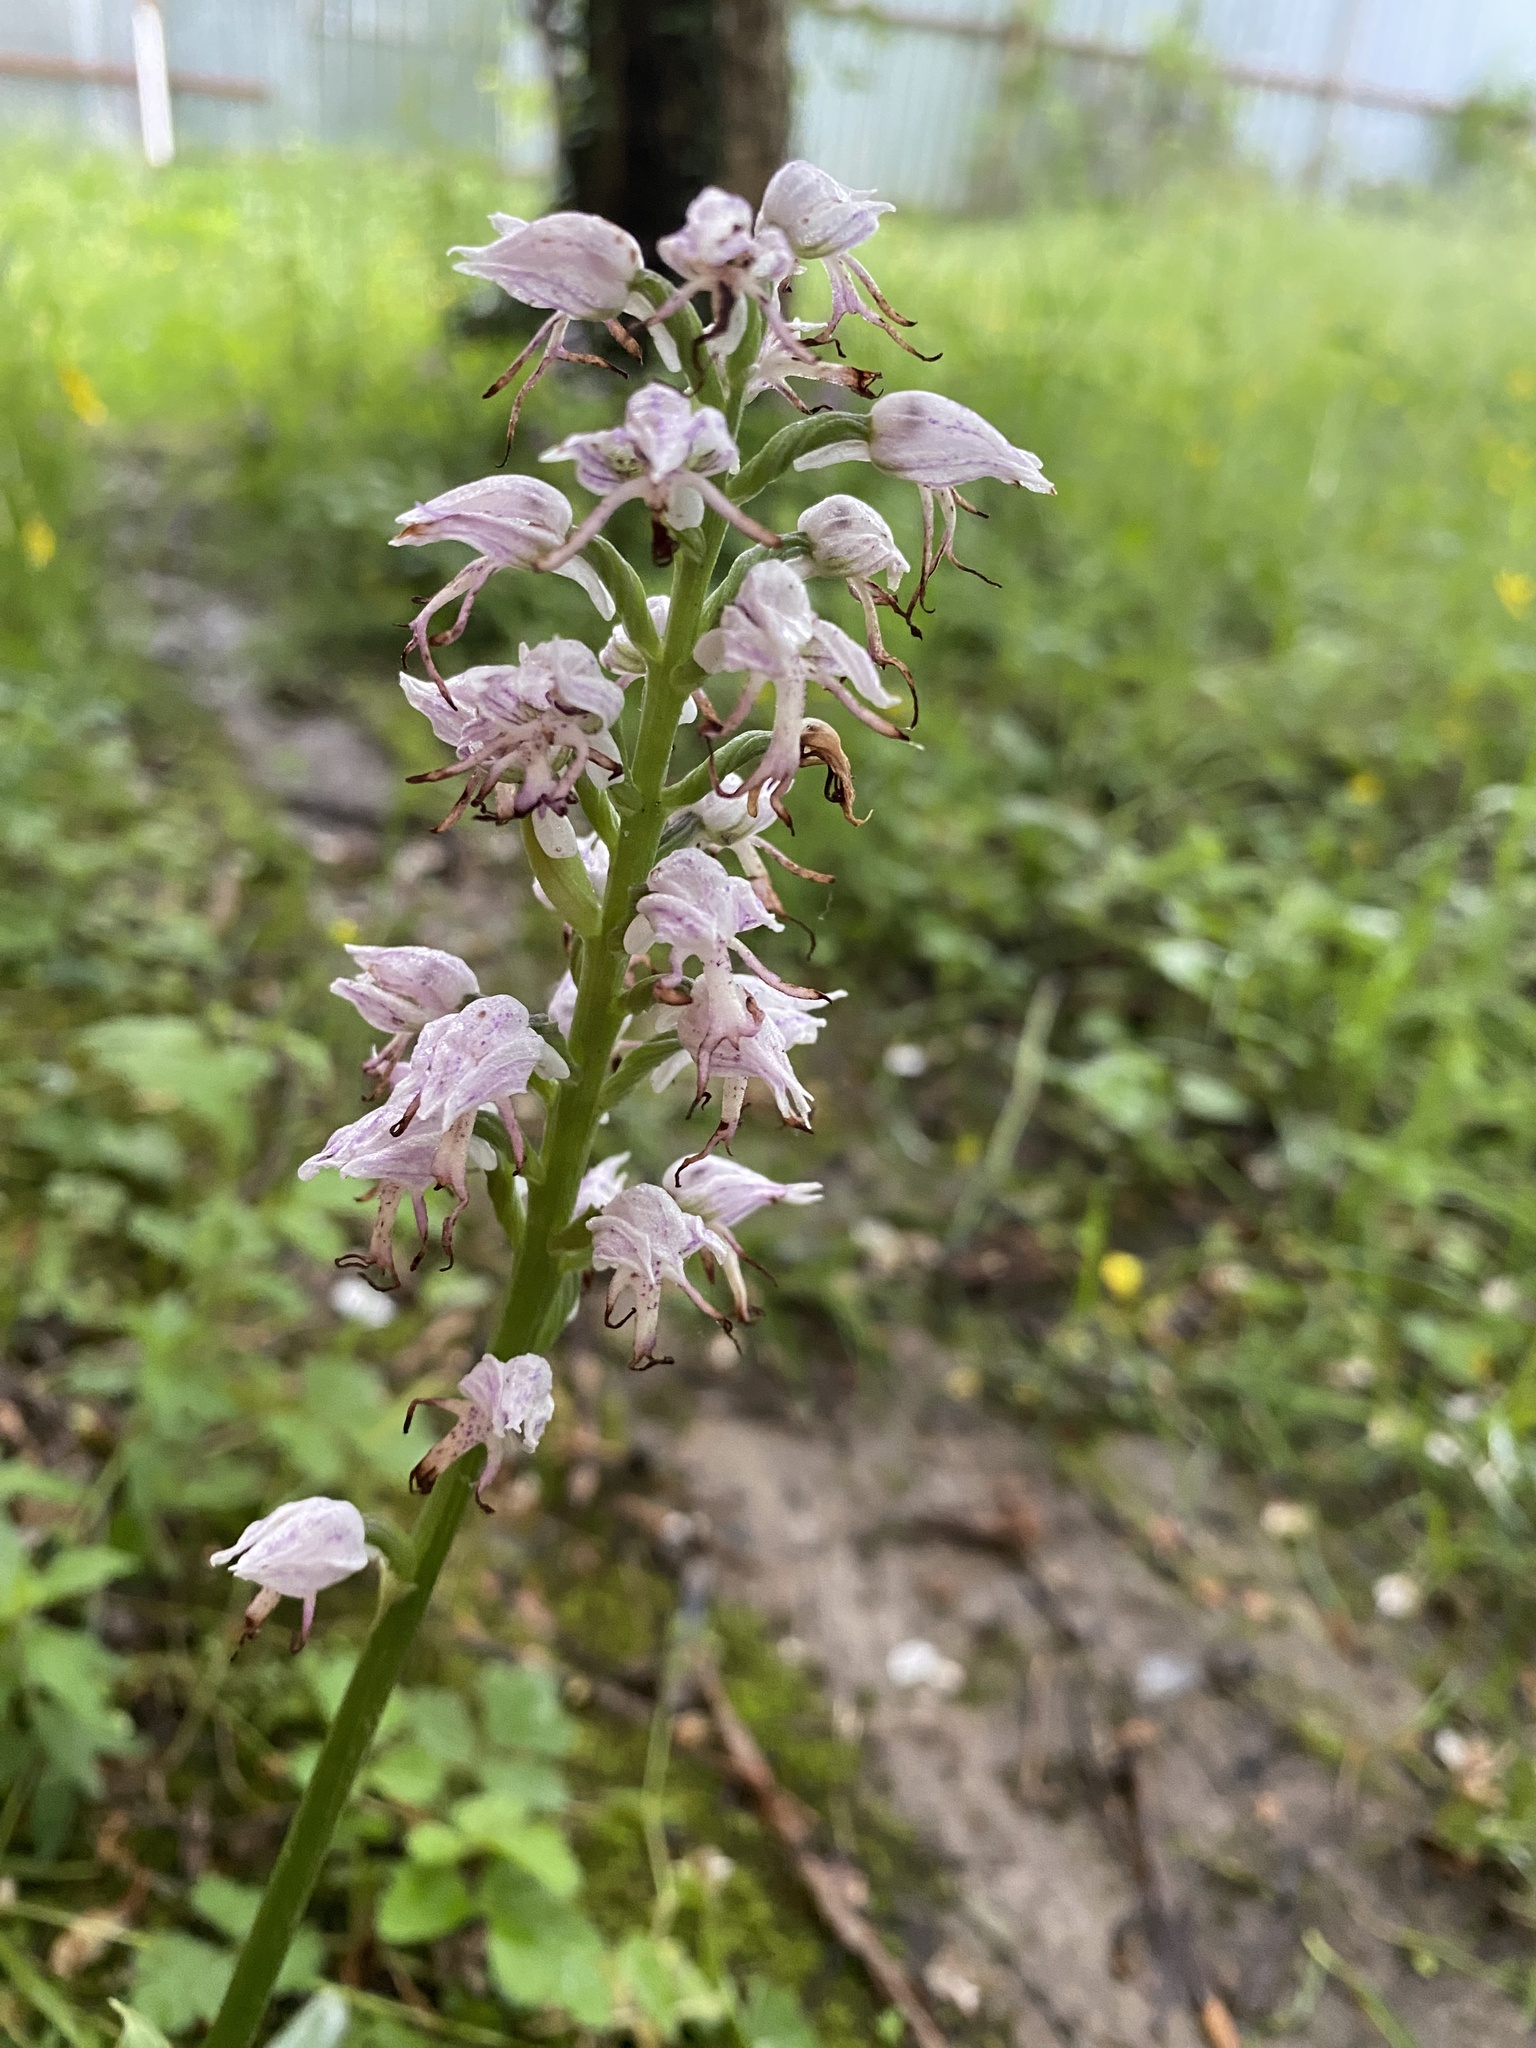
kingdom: Plantae
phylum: Tracheophyta
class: Liliopsida
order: Asparagales
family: Orchidaceae
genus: Orchis
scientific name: Orchis simia
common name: Monkey orchid
